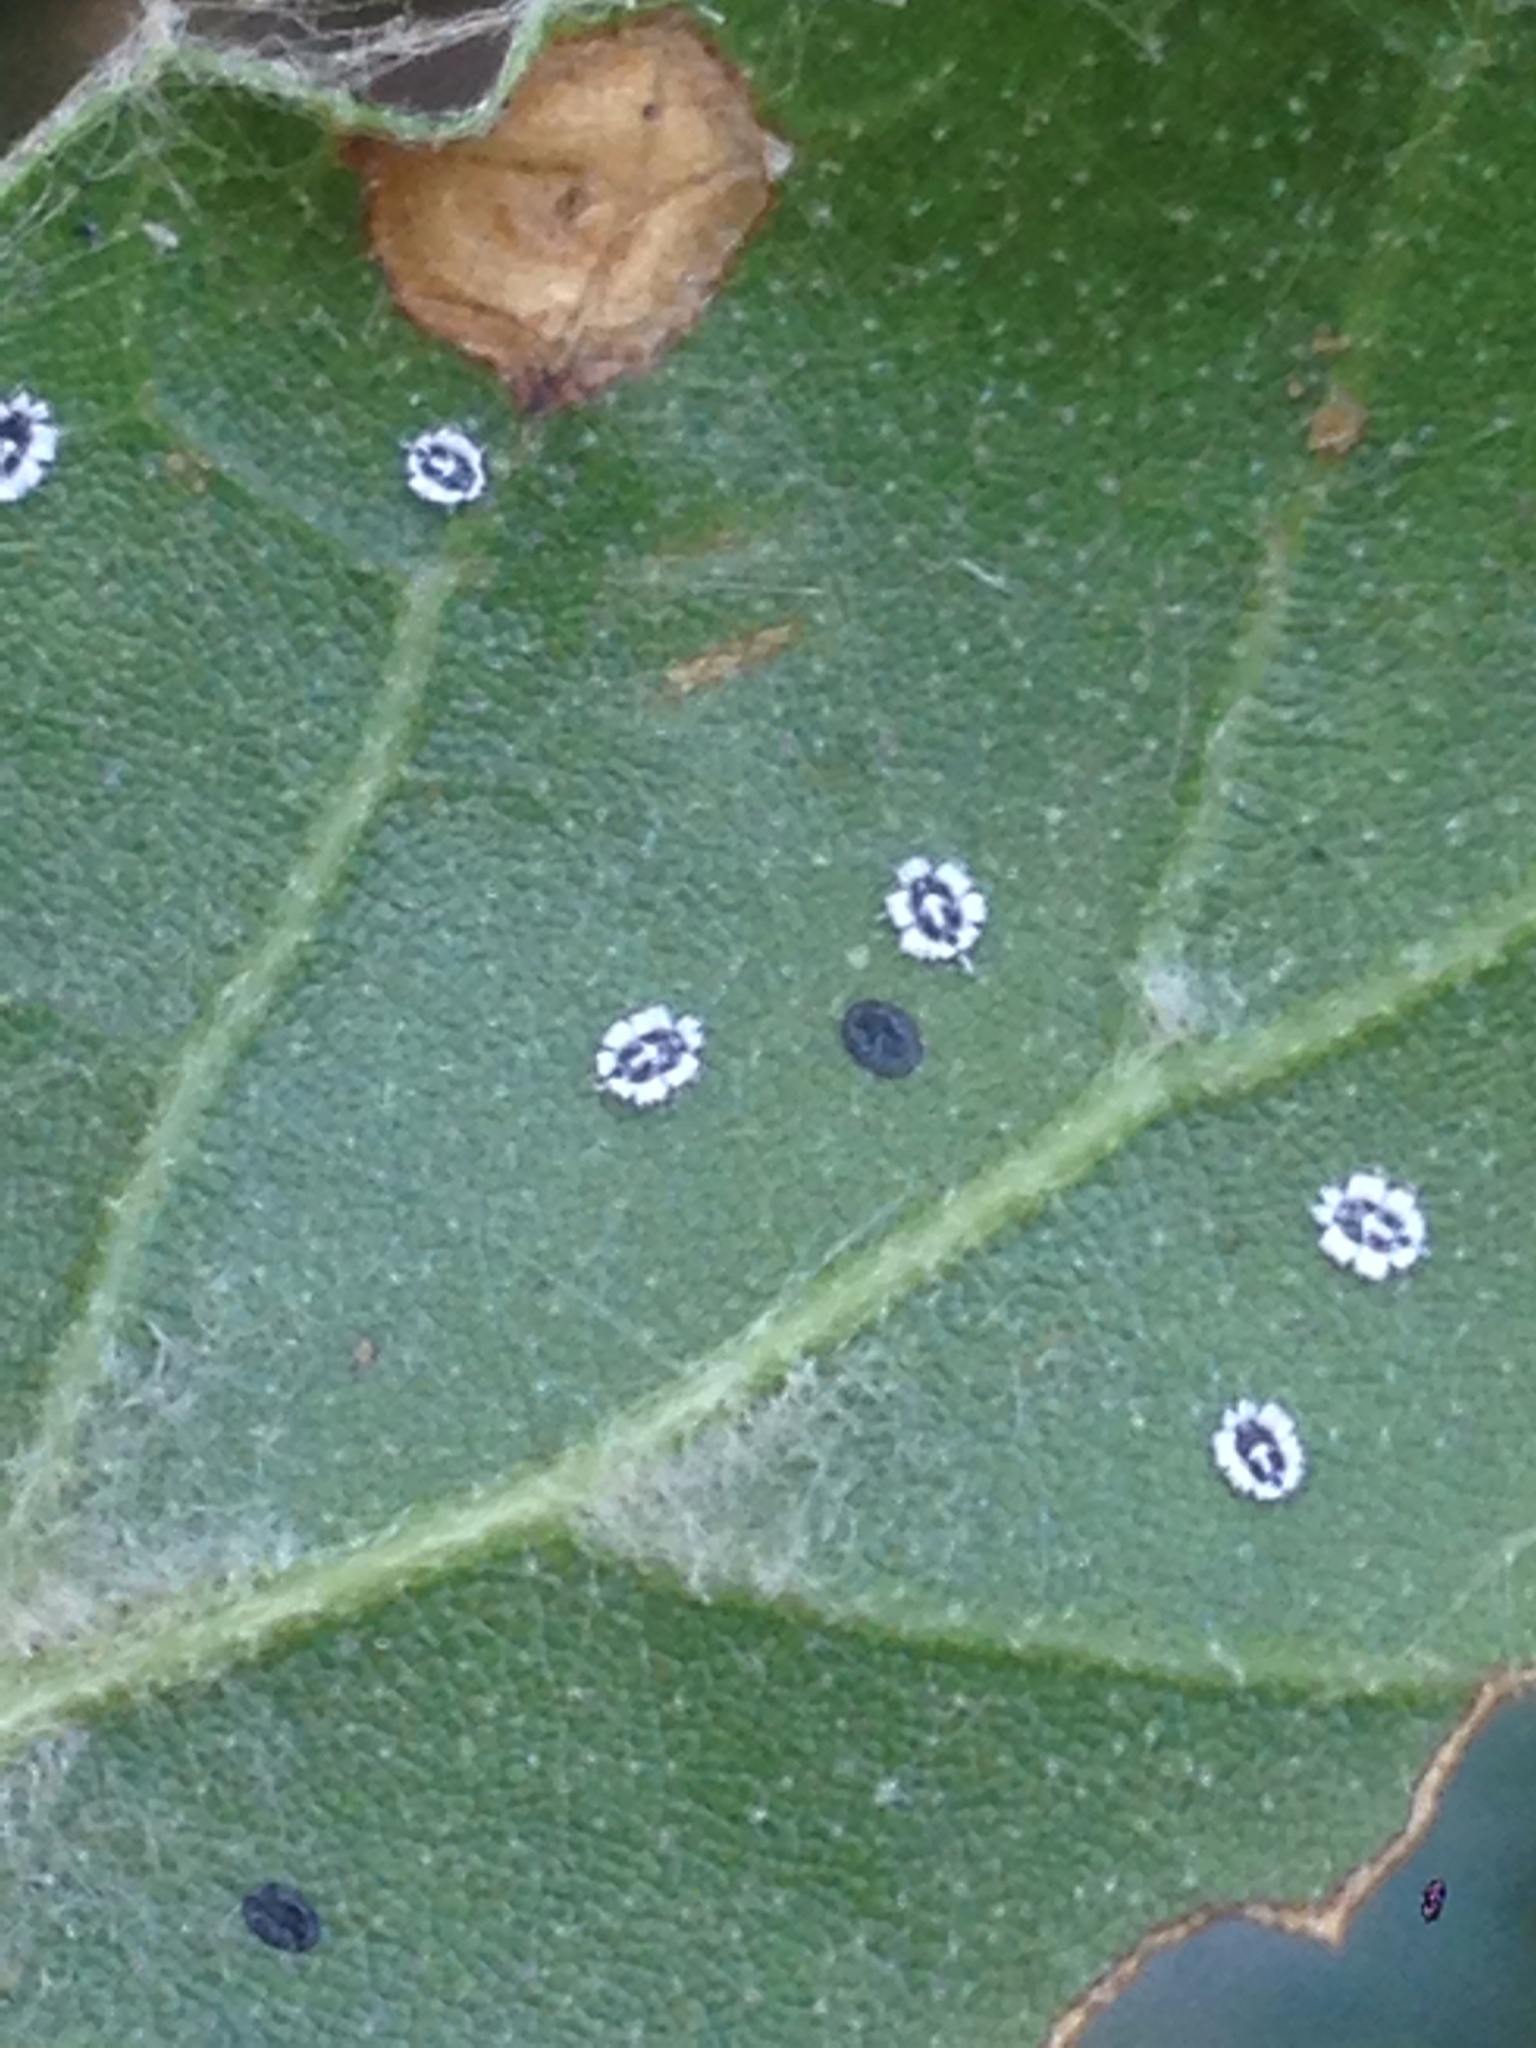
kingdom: Animalia
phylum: Arthropoda
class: Insecta
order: Hemiptera
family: Aleyrodidae
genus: Aleuroplatus
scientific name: Aleuroplatus coronata
